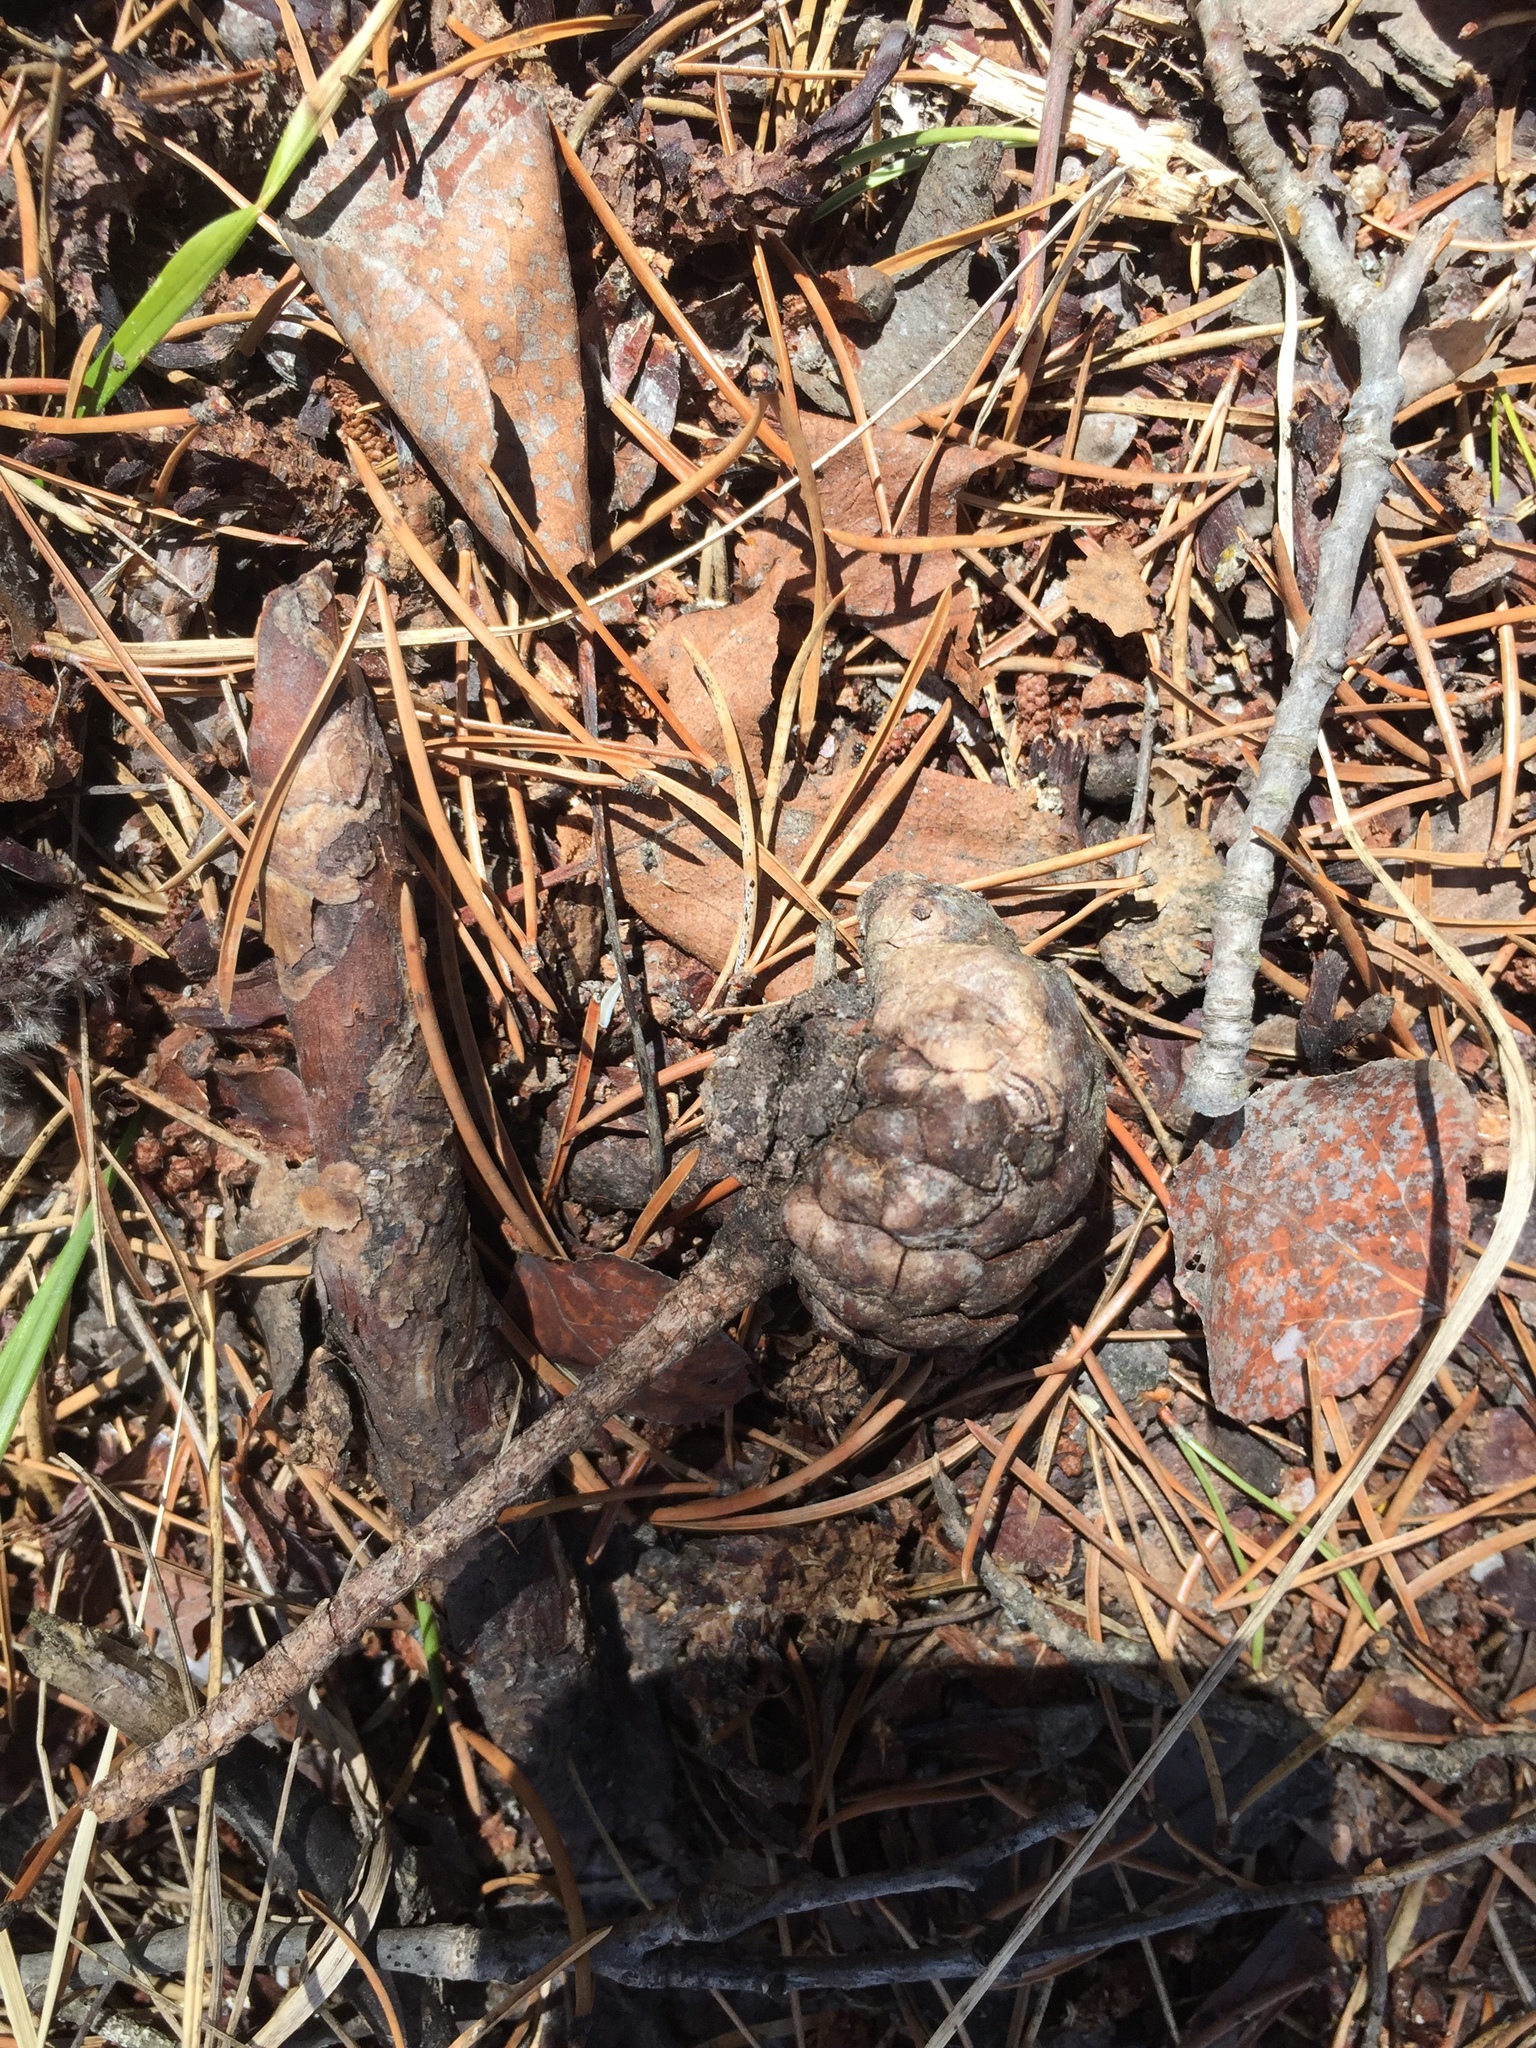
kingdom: Plantae
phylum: Tracheophyta
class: Pinopsida
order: Pinales
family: Pinaceae
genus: Pinus
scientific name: Pinus banksiana
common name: Jack pine
